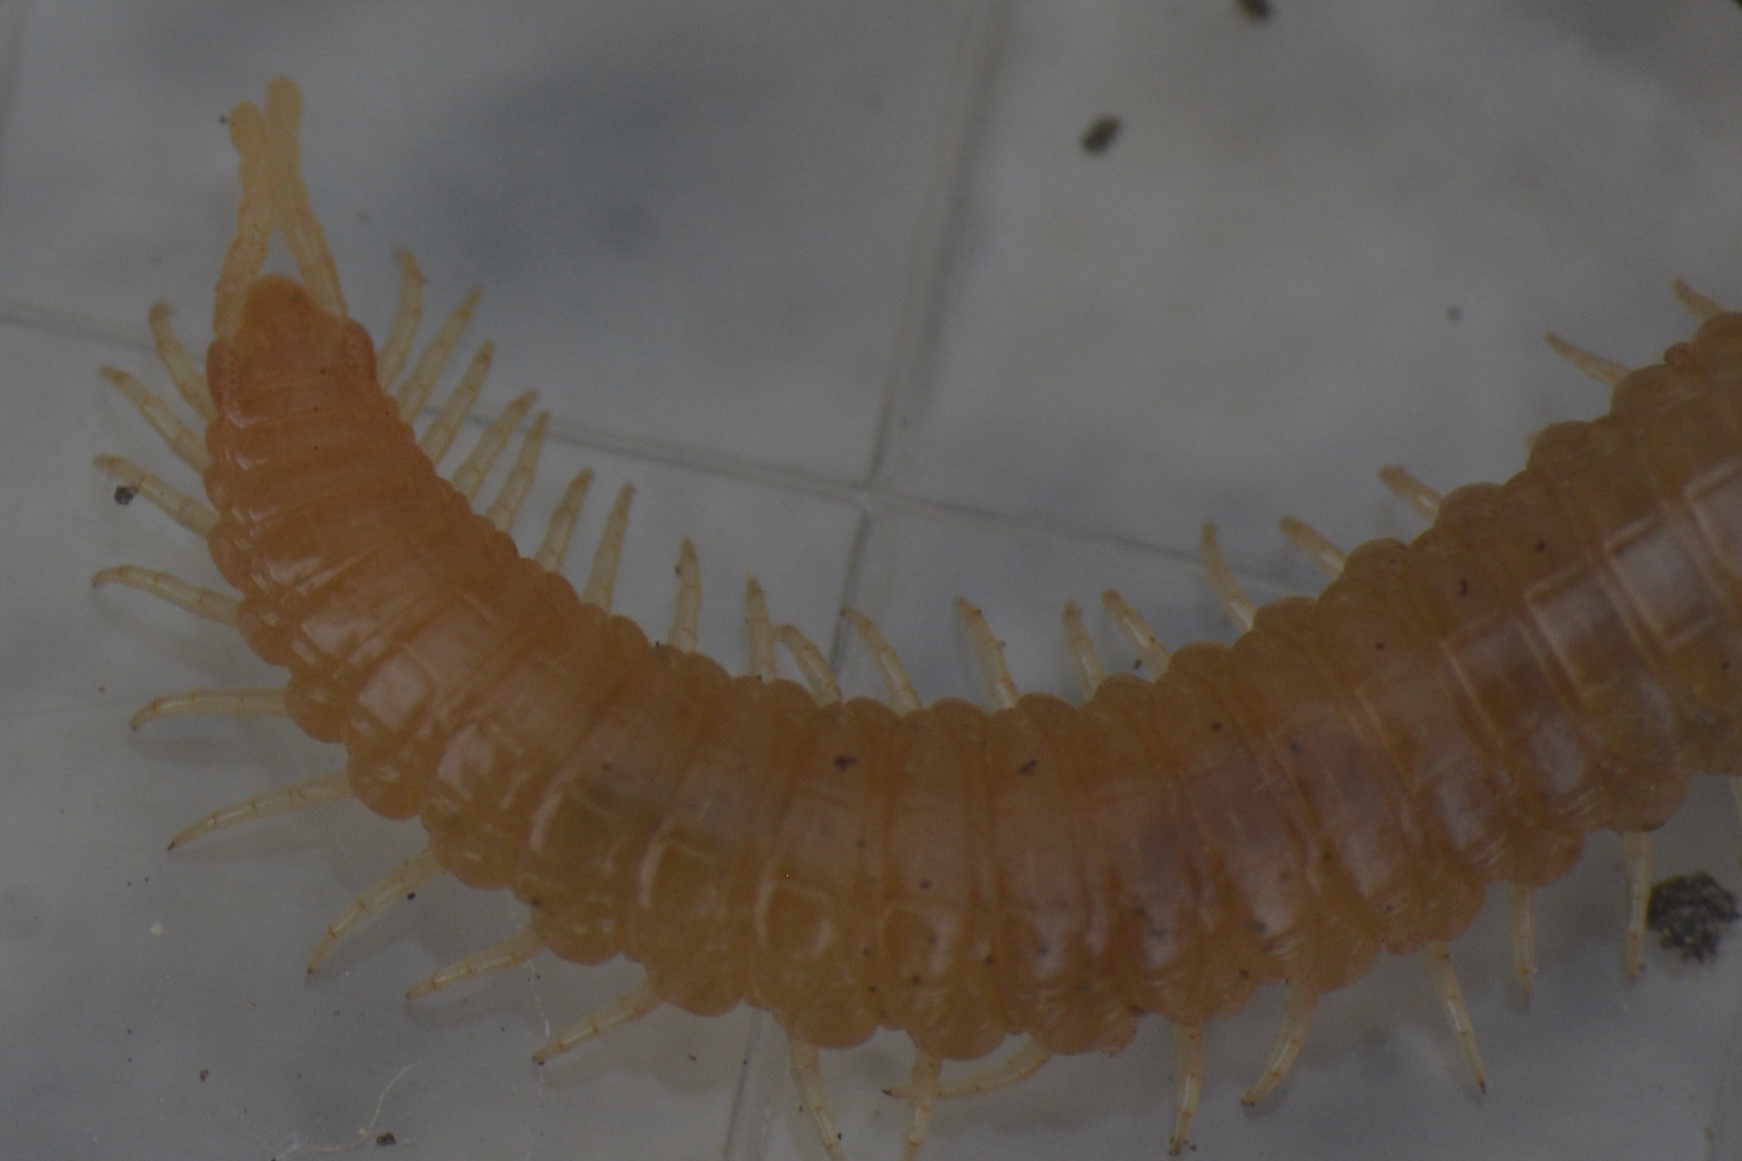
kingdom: Animalia
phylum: Arthropoda
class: Chilopoda
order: Geophilomorpha
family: Himantariidae
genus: Stigmatogaster
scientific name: Stigmatogaster subterranea
